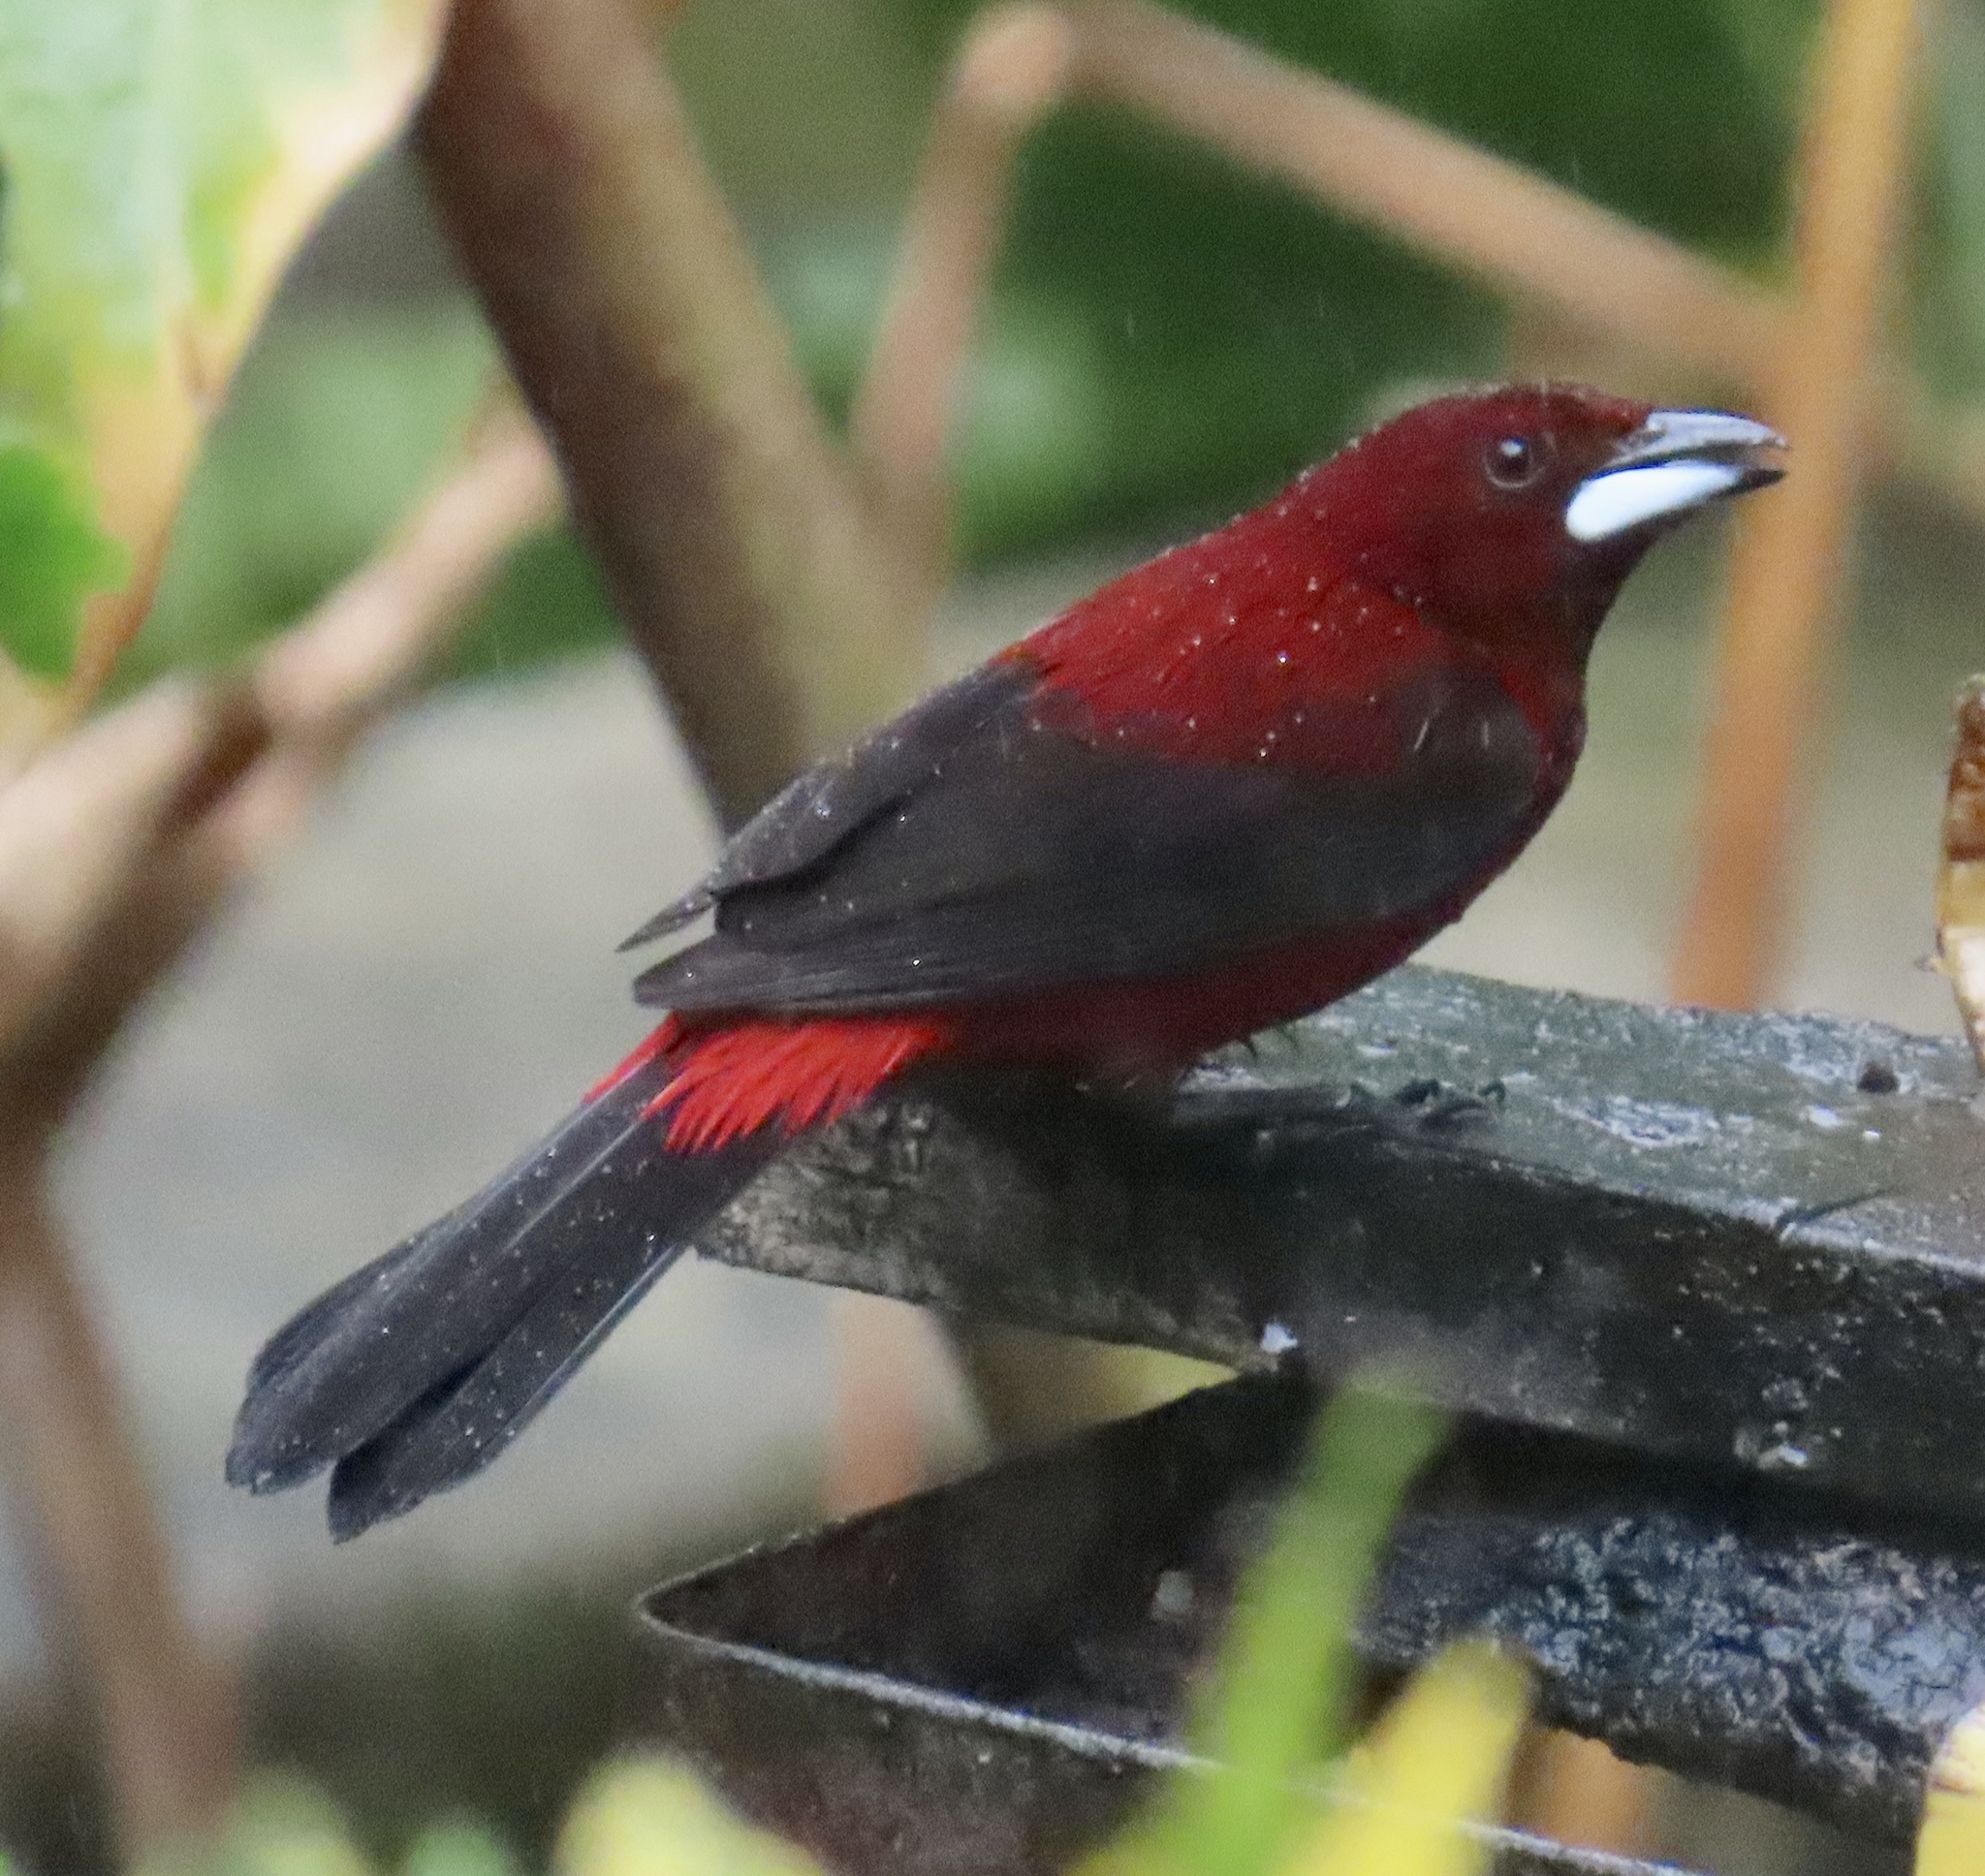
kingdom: Animalia
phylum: Chordata
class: Aves
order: Passeriformes
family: Thraupidae
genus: Ramphocelus
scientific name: Ramphocelus dimidiatus
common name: Crimson-backed tanager
